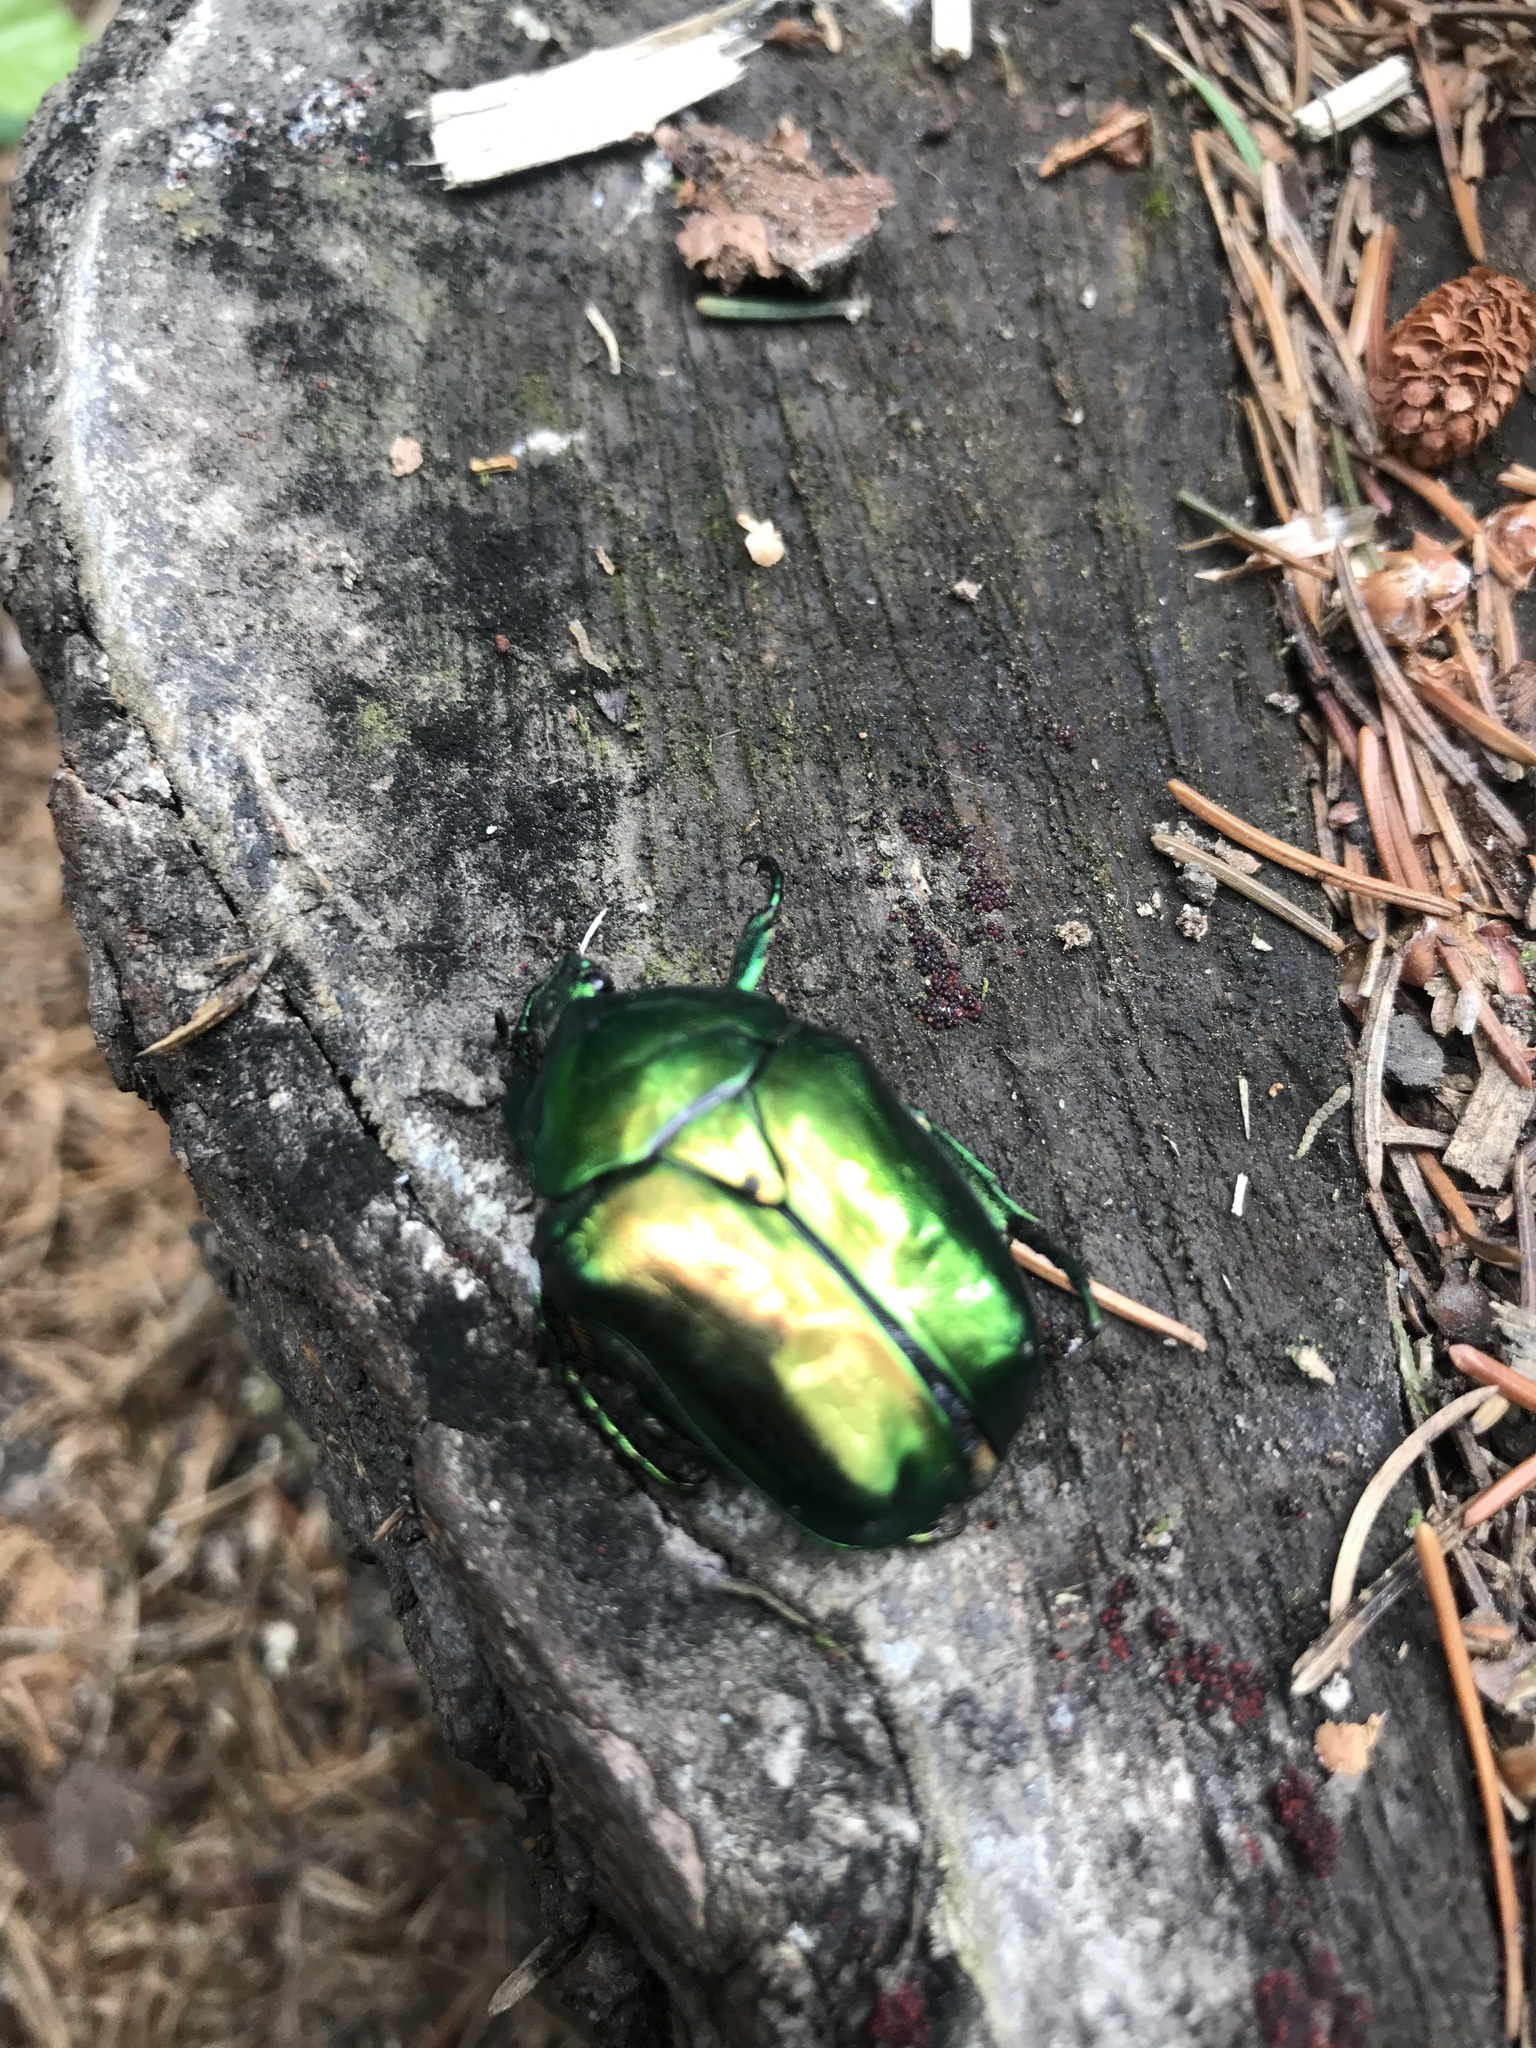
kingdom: Animalia
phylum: Arthropoda
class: Insecta
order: Coleoptera
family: Scarabaeidae
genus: Protaetia
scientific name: Protaetia speciosissima
